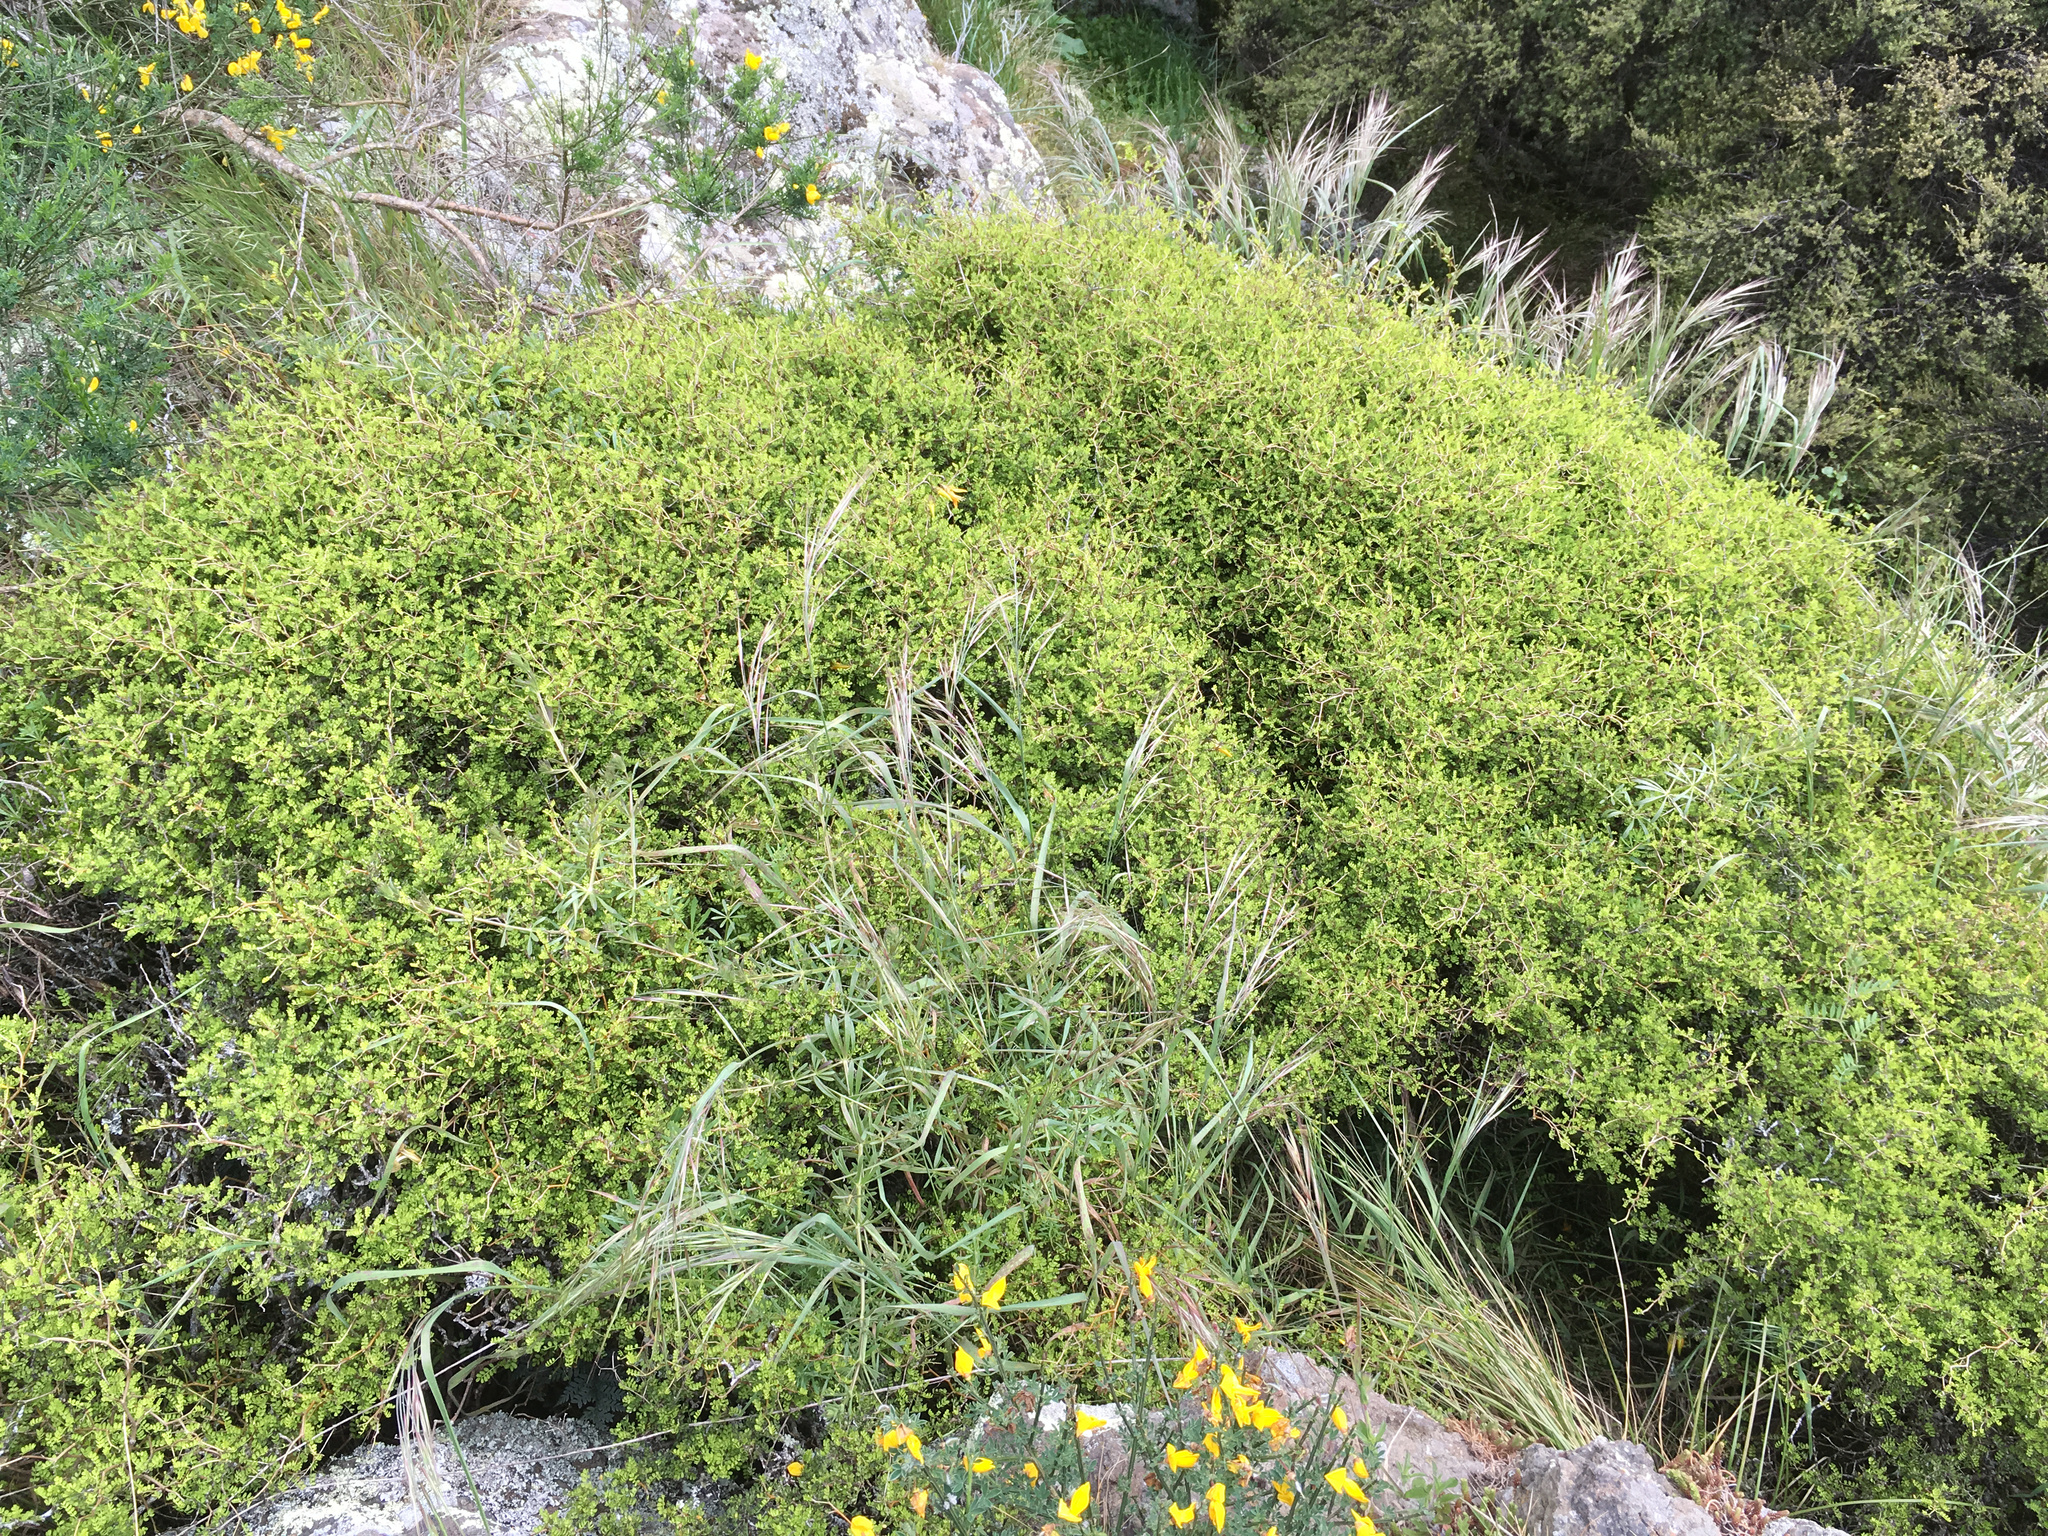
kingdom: Plantae
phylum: Tracheophyta
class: Magnoliopsida
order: Fabales
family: Fabaceae
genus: Sophora
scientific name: Sophora prostrata
